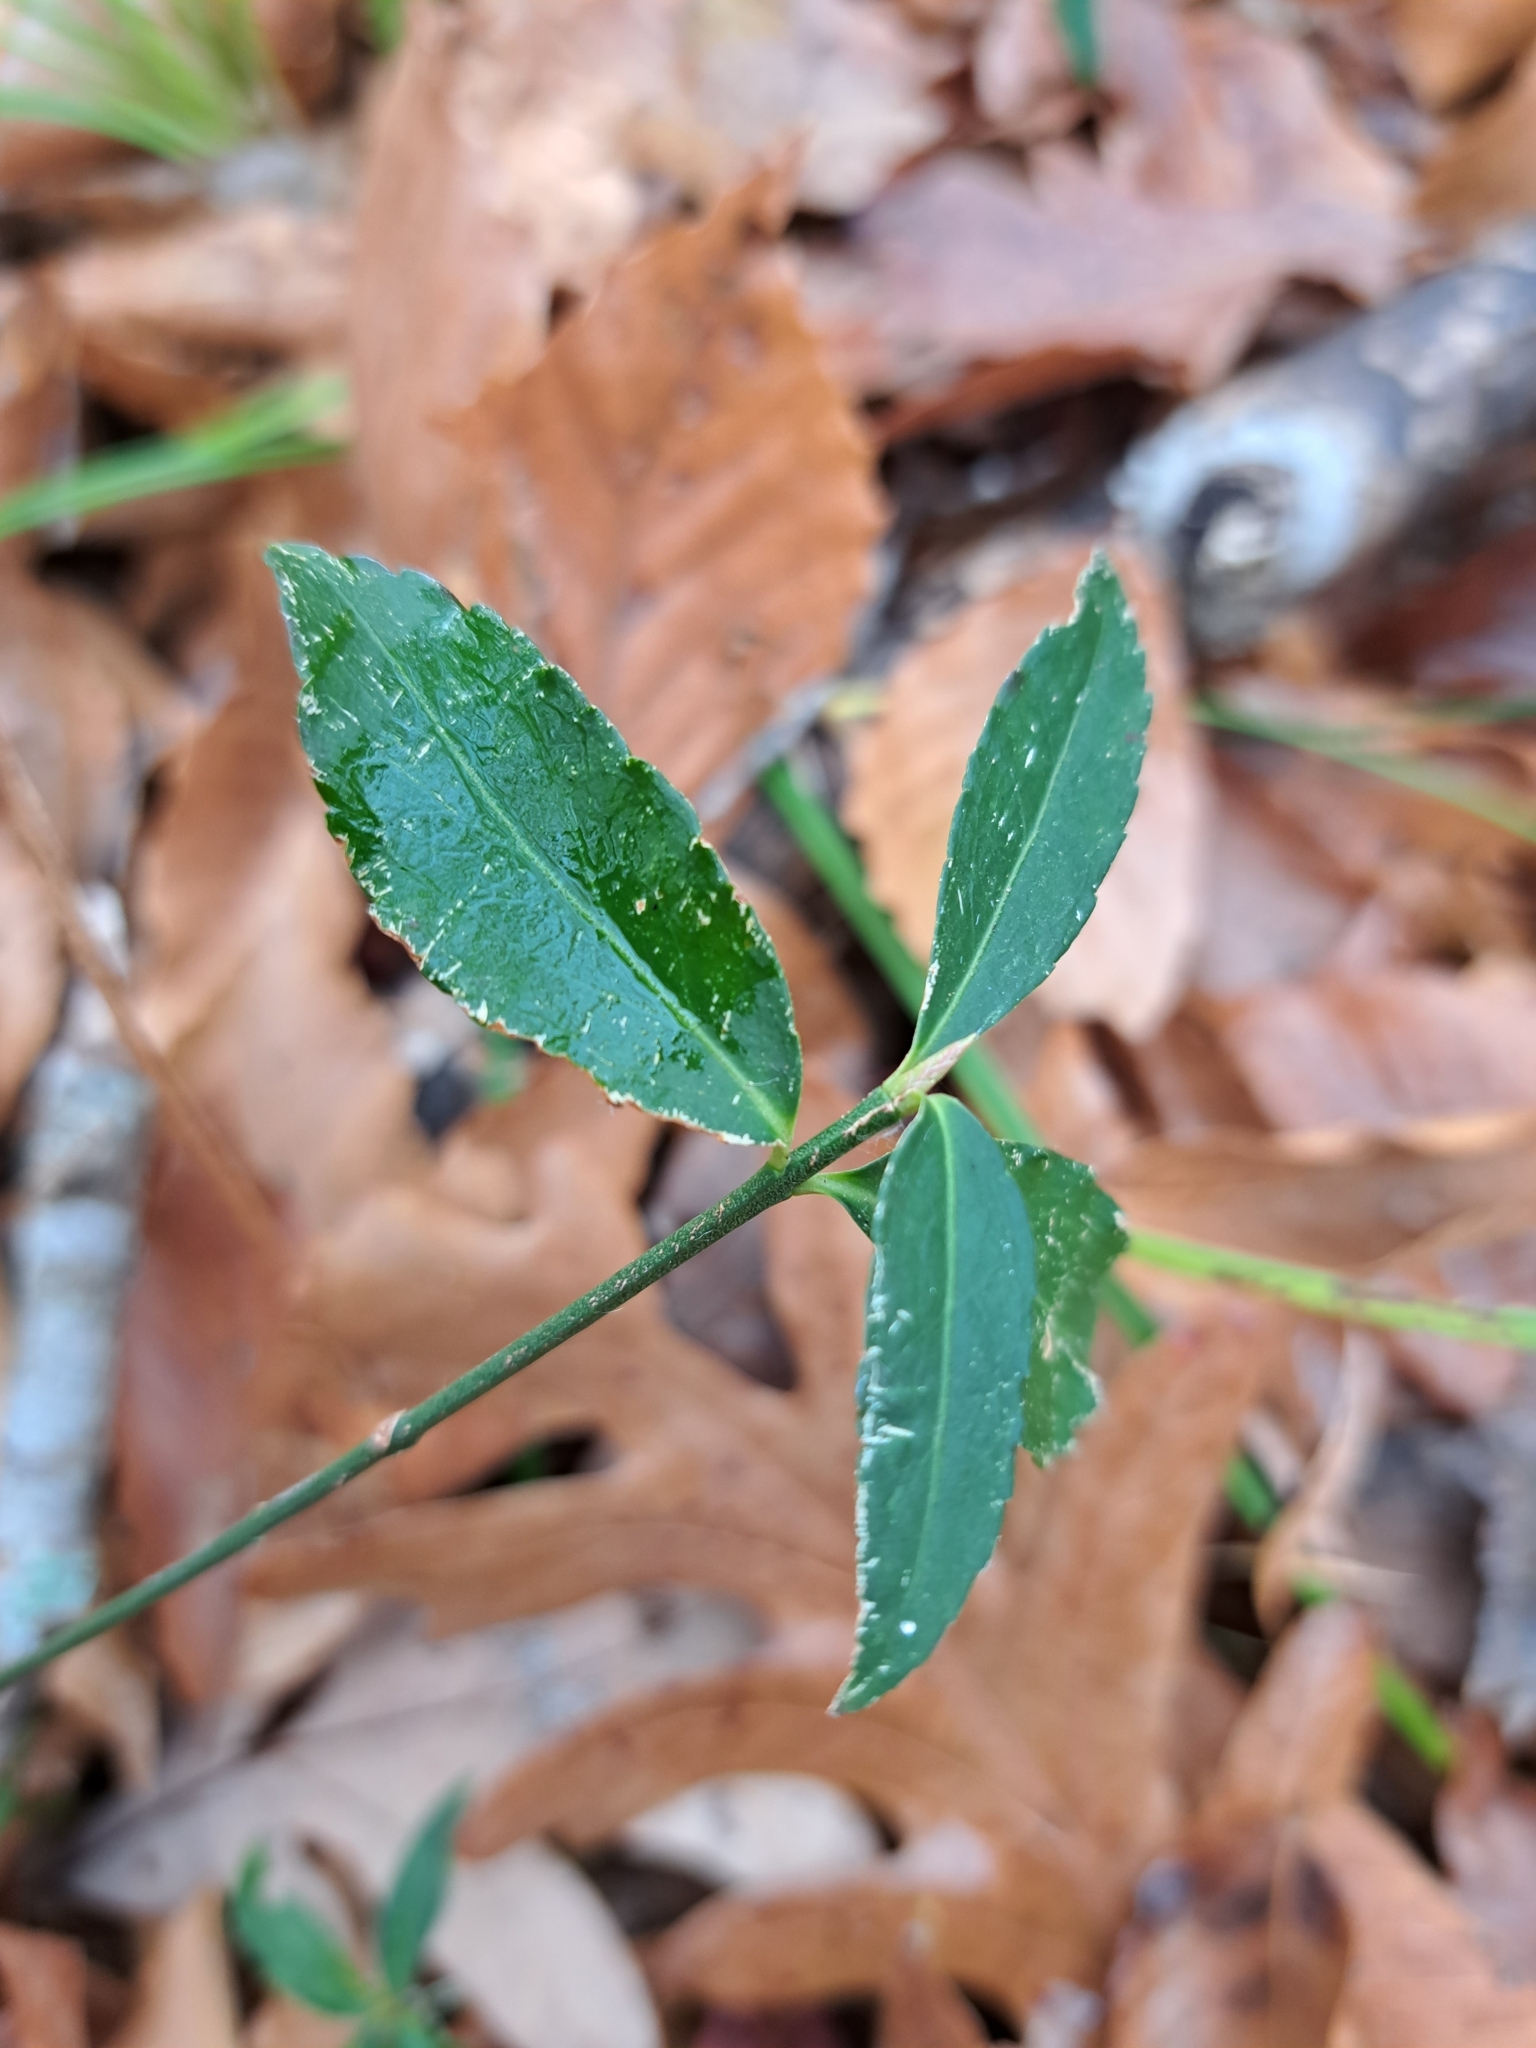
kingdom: Plantae
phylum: Tracheophyta
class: Magnoliopsida
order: Celastrales
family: Celastraceae
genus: Euonymus
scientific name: Euonymus americanus
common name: Bursting-heart
